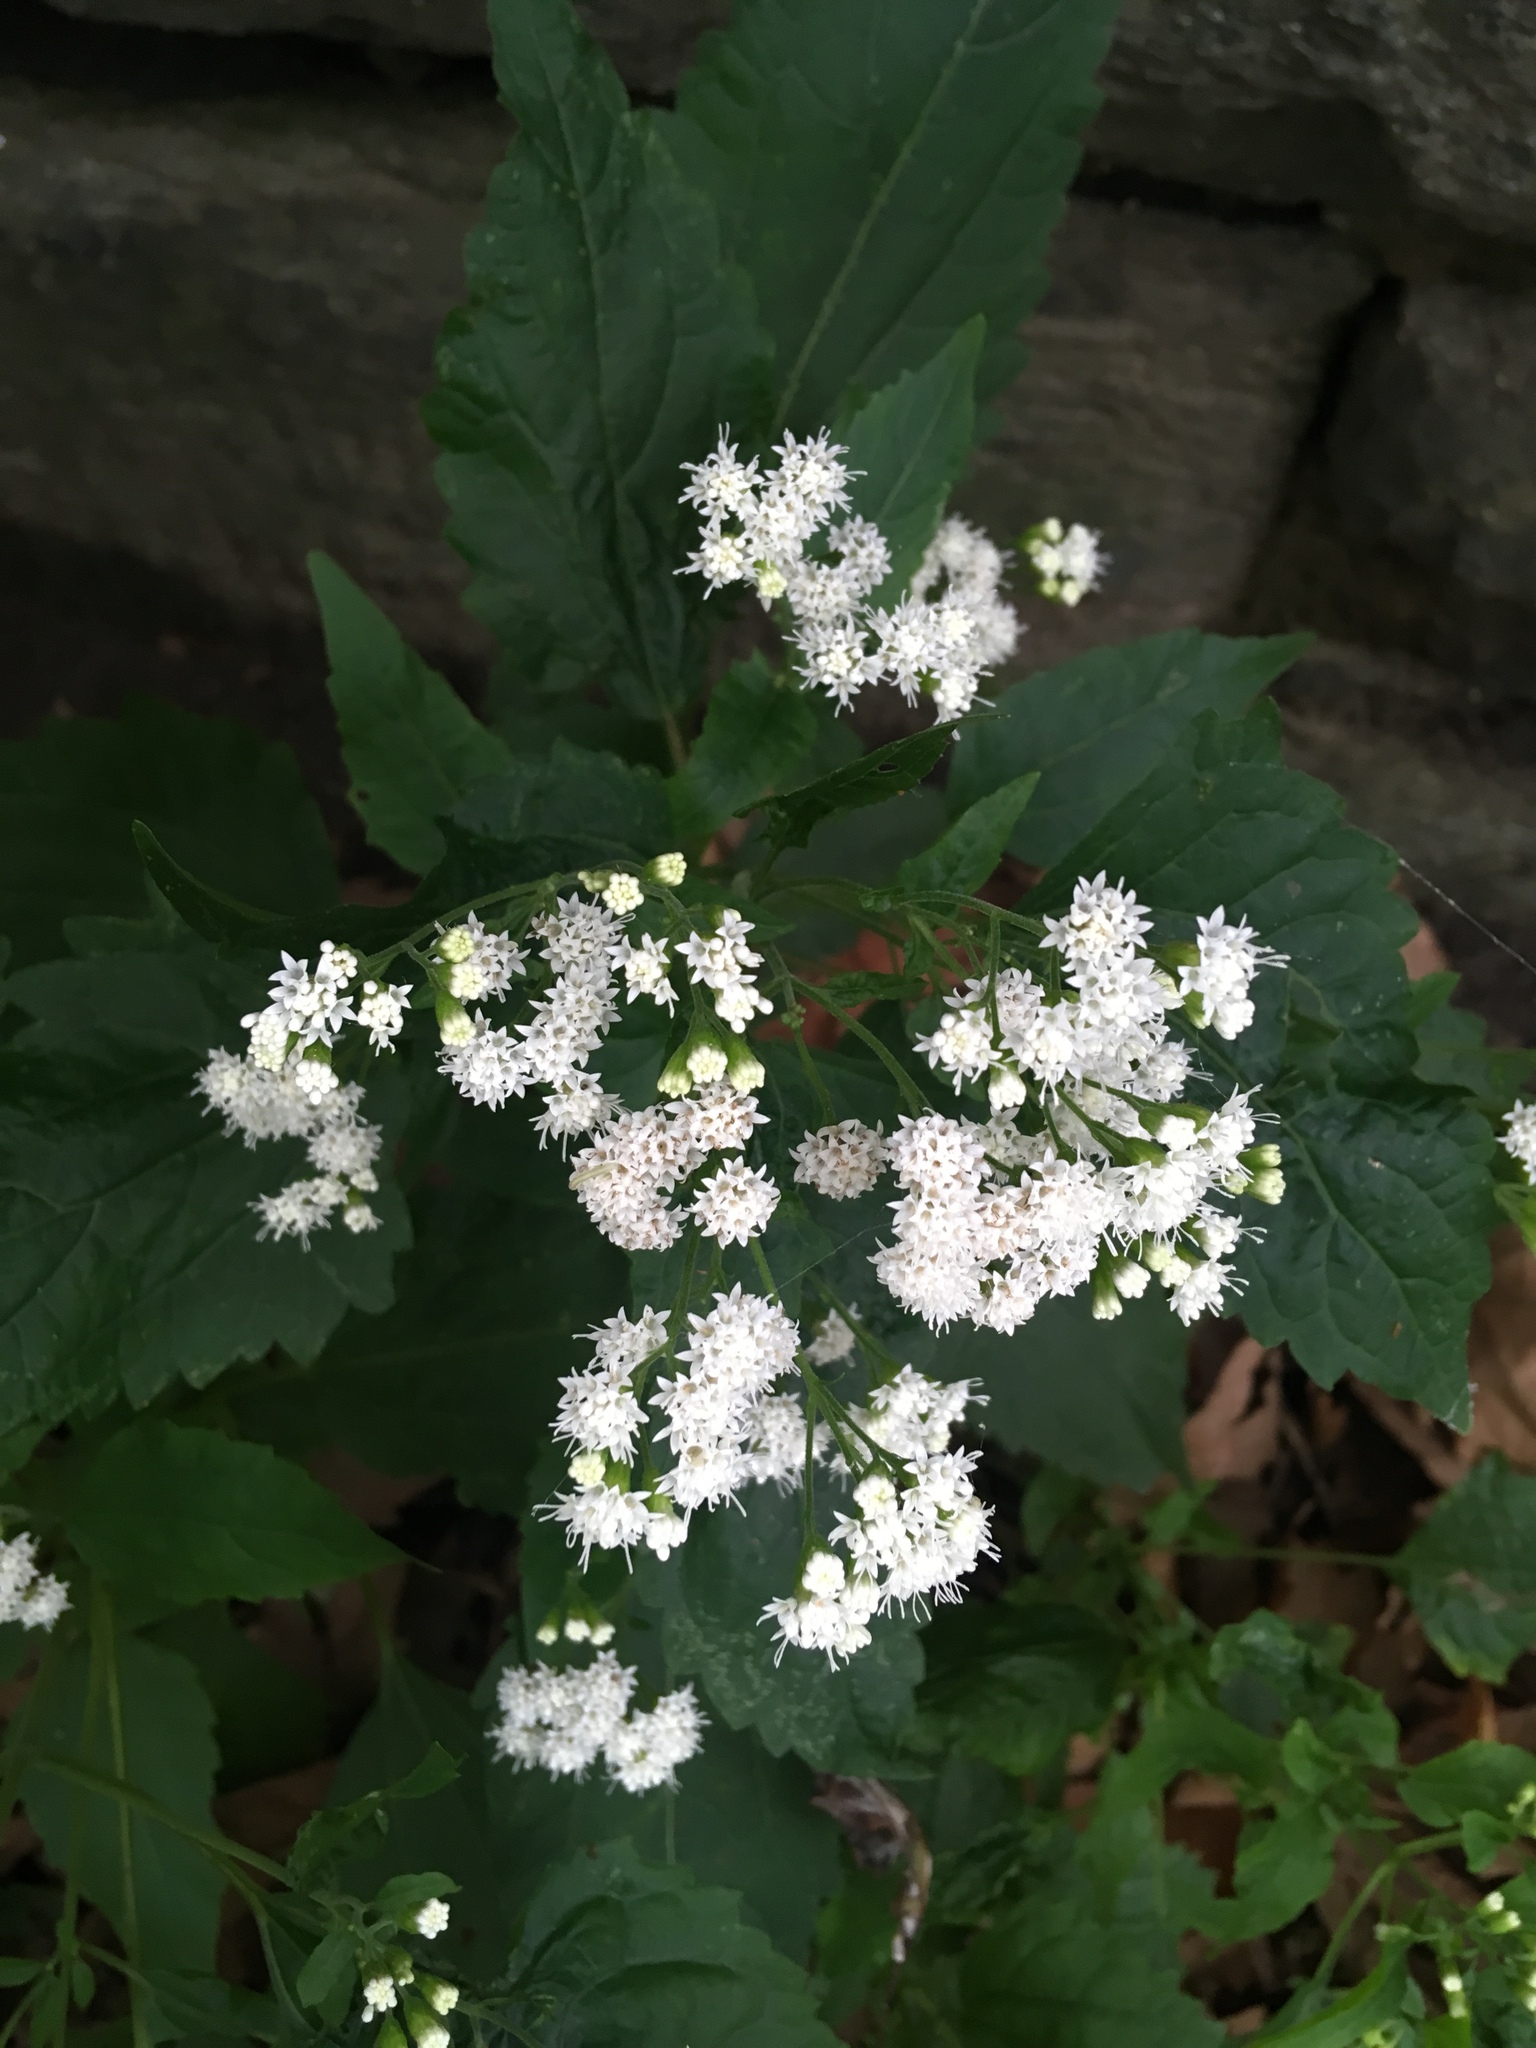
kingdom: Plantae
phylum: Tracheophyta
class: Magnoliopsida
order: Asterales
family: Asteraceae
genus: Ageratina
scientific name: Ageratina altissima
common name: White snakeroot
